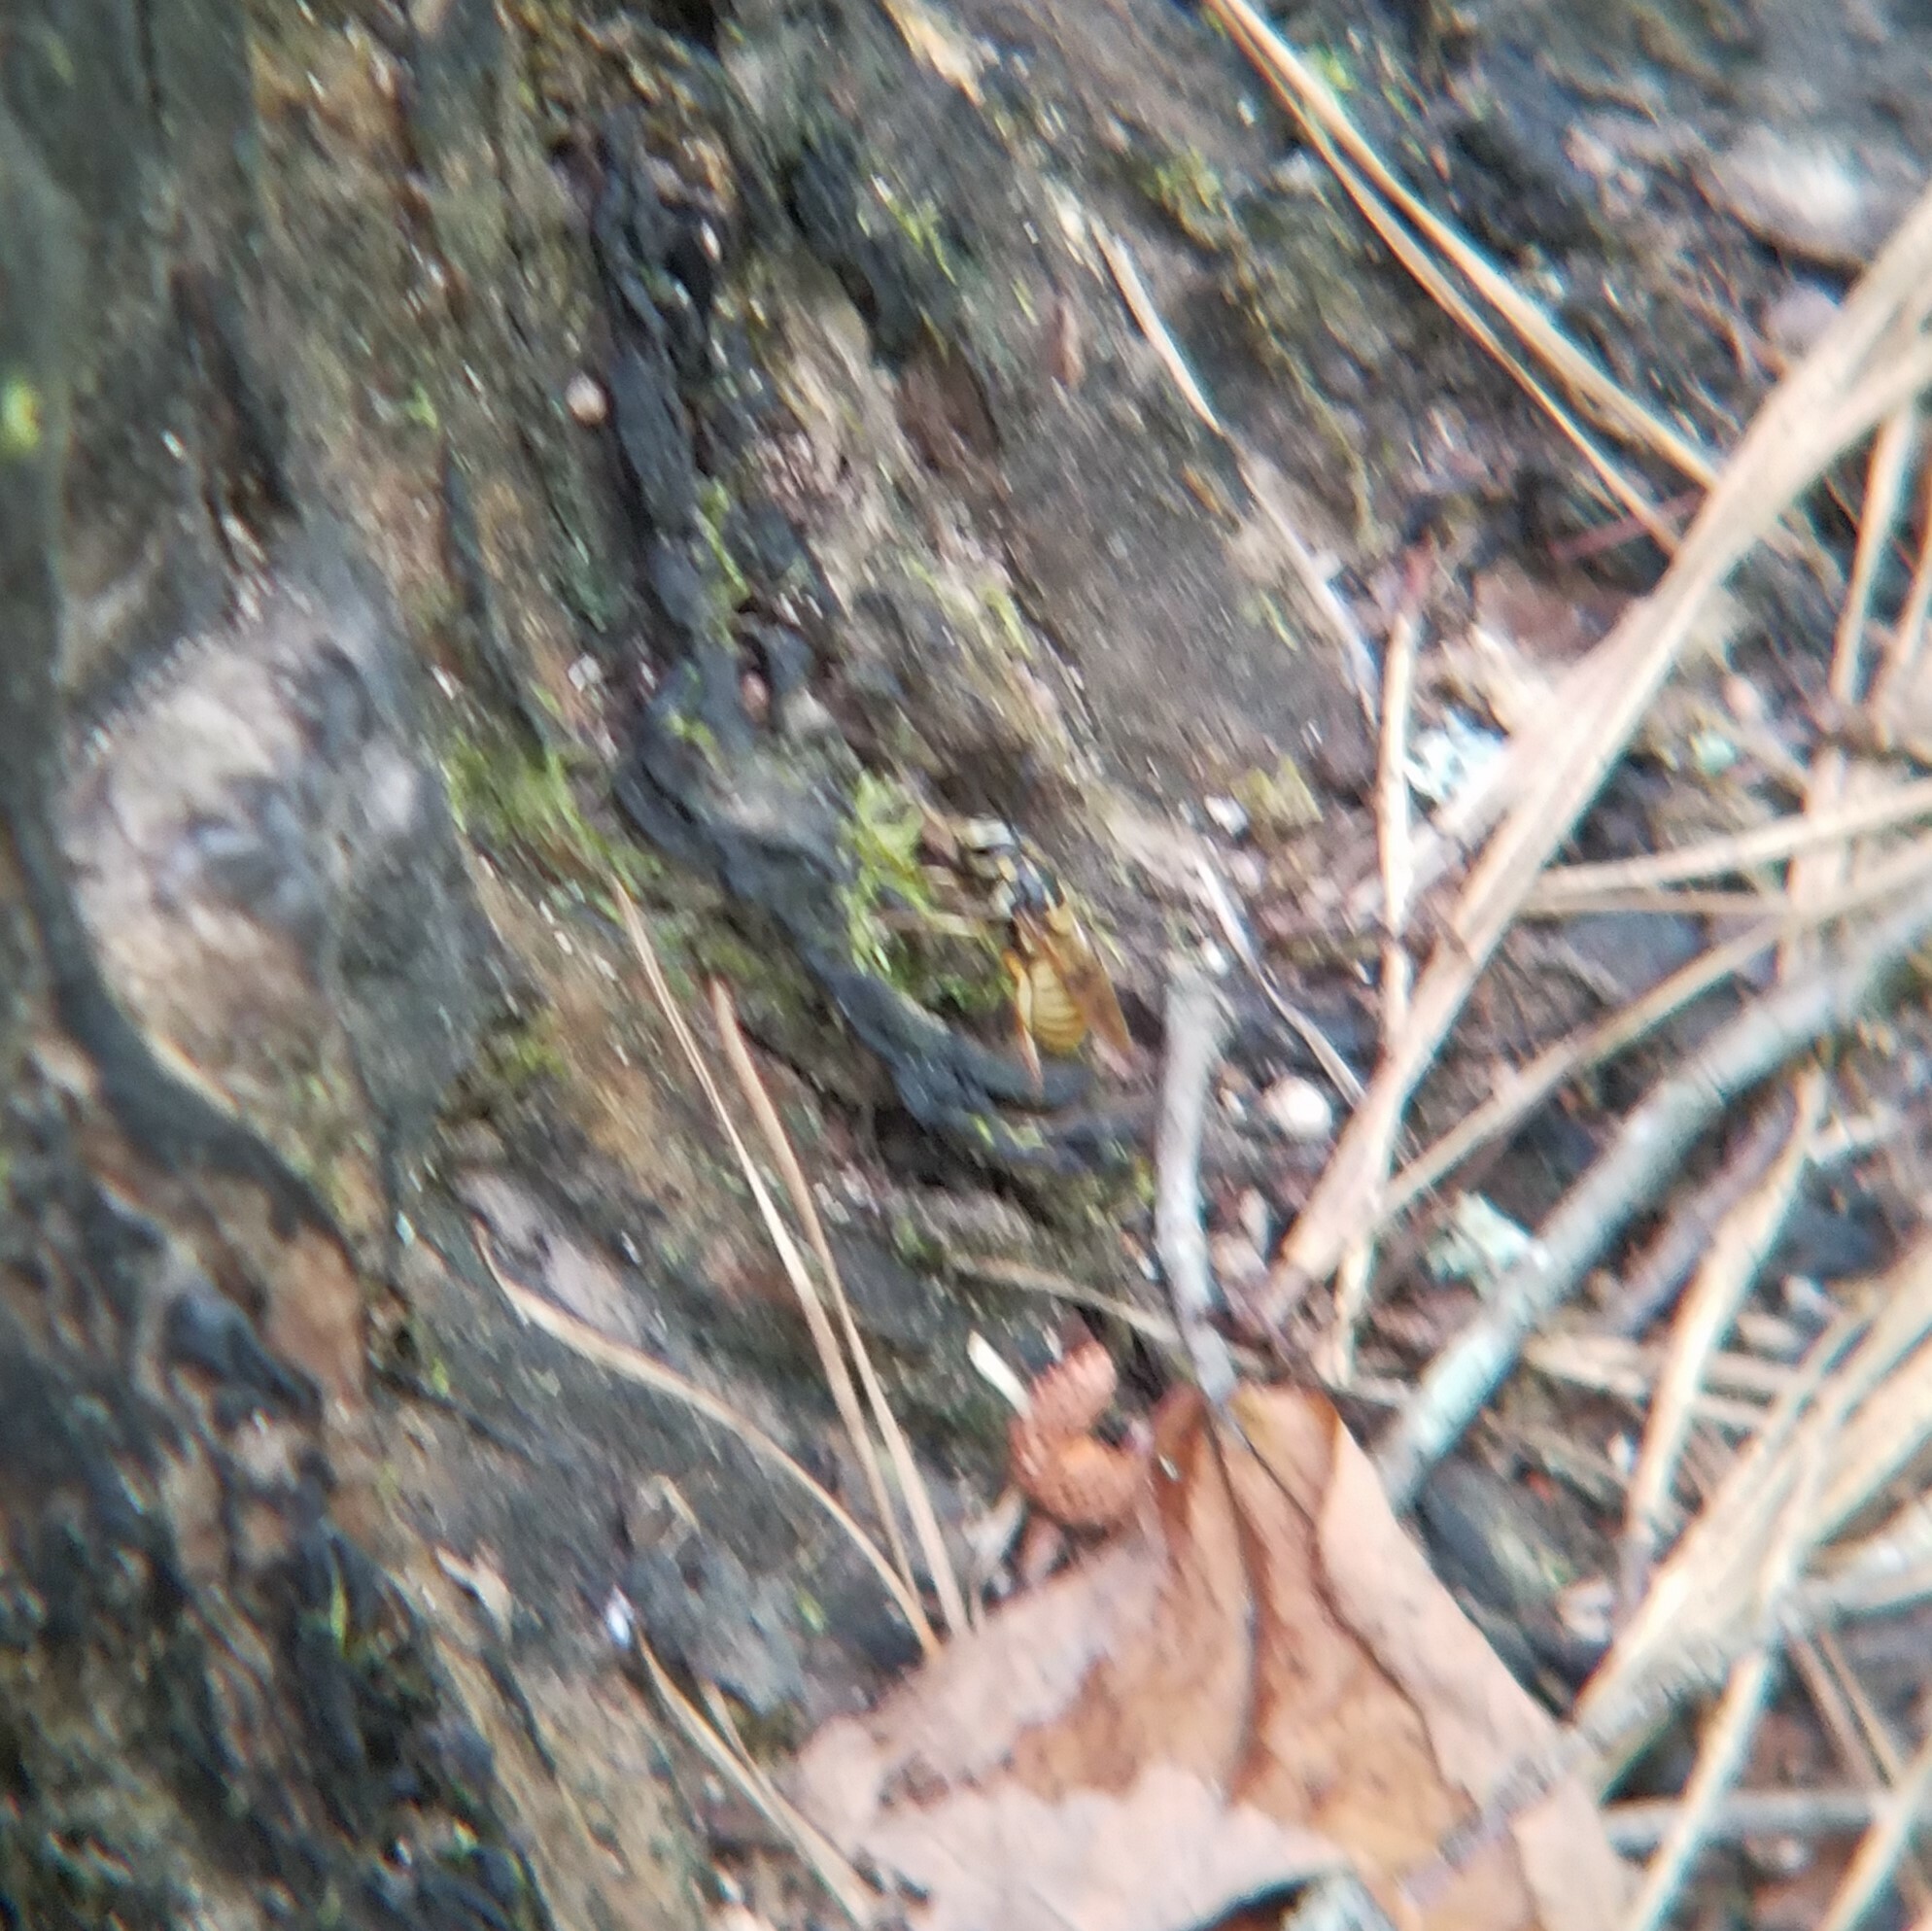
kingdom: Animalia
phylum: Arthropoda
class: Insecta
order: Diptera
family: Syrphidae
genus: Sphecomyia
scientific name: Sphecomyia vittata
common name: Long-horned yellowjacket fly
